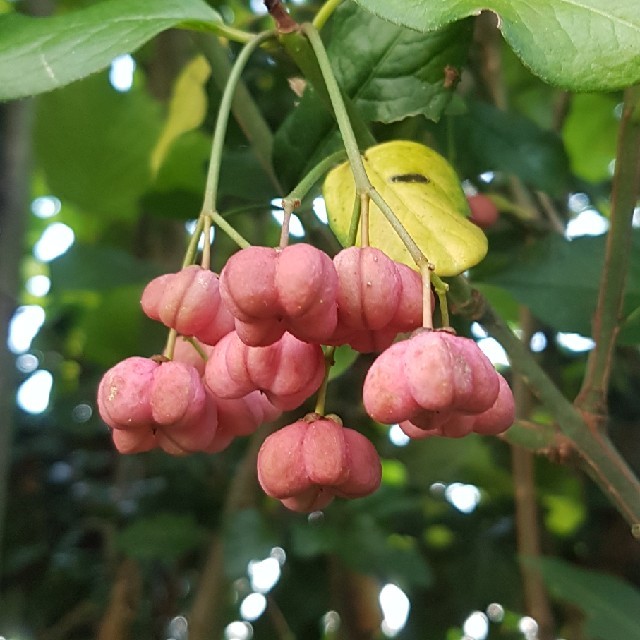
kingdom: Plantae
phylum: Tracheophyta
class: Magnoliopsida
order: Celastrales
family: Celastraceae
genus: Euonymus
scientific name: Euonymus europaeus
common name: Spindle
